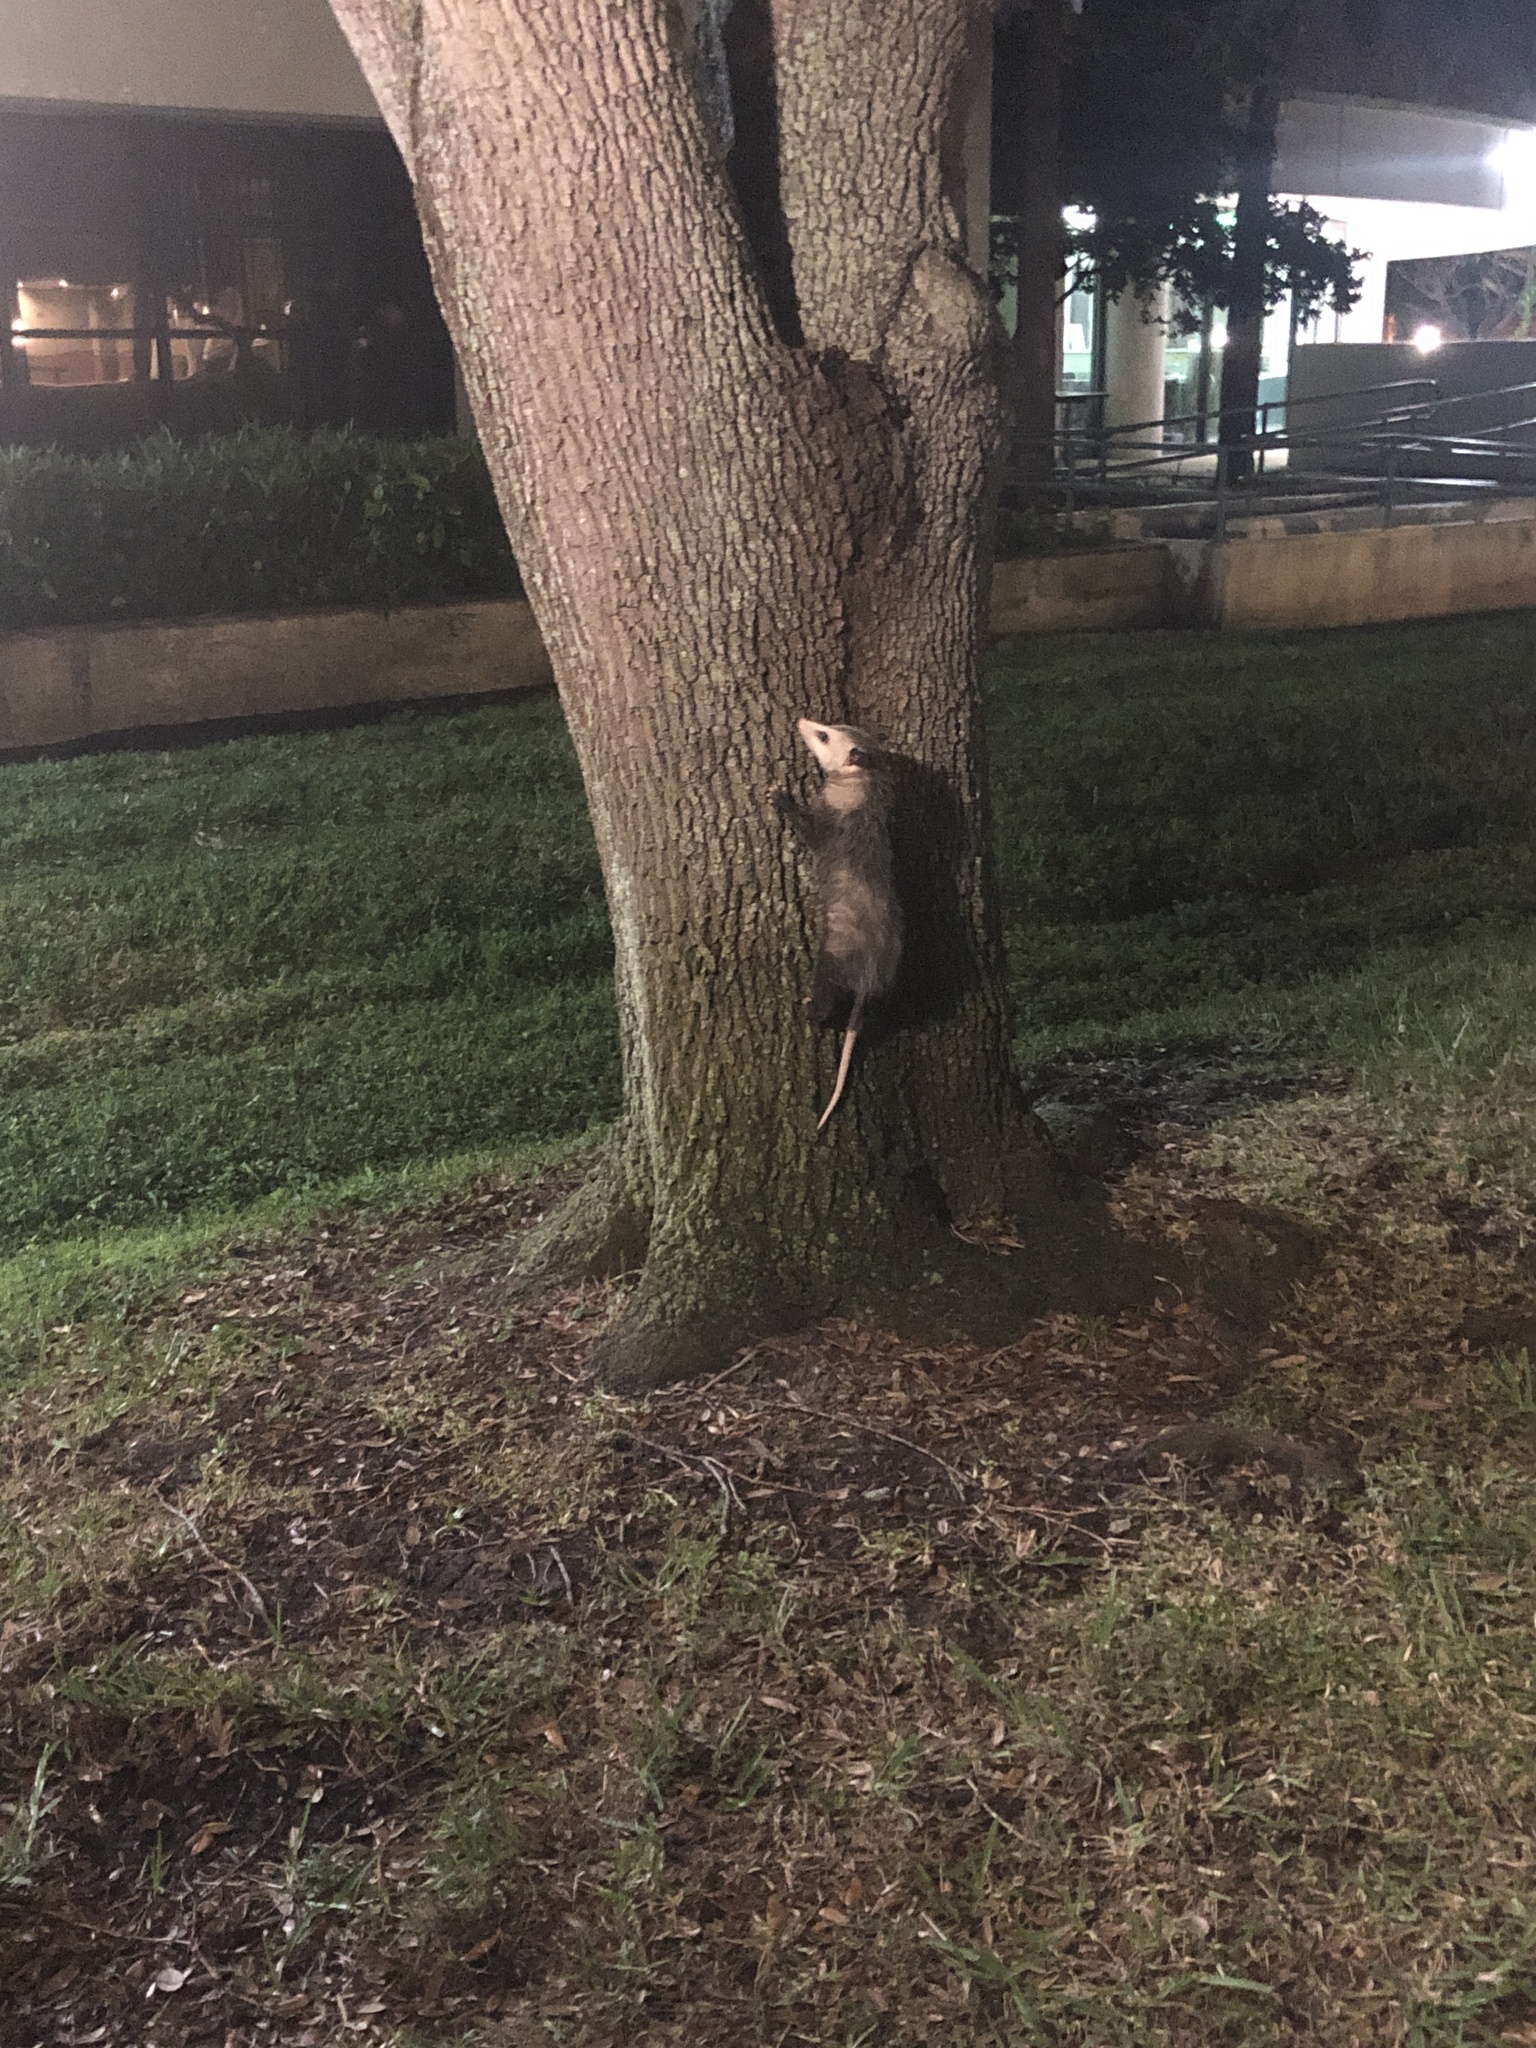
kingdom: Animalia
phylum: Chordata
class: Mammalia
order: Didelphimorphia
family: Didelphidae
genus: Didelphis
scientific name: Didelphis virginiana
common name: Virginia opossum
